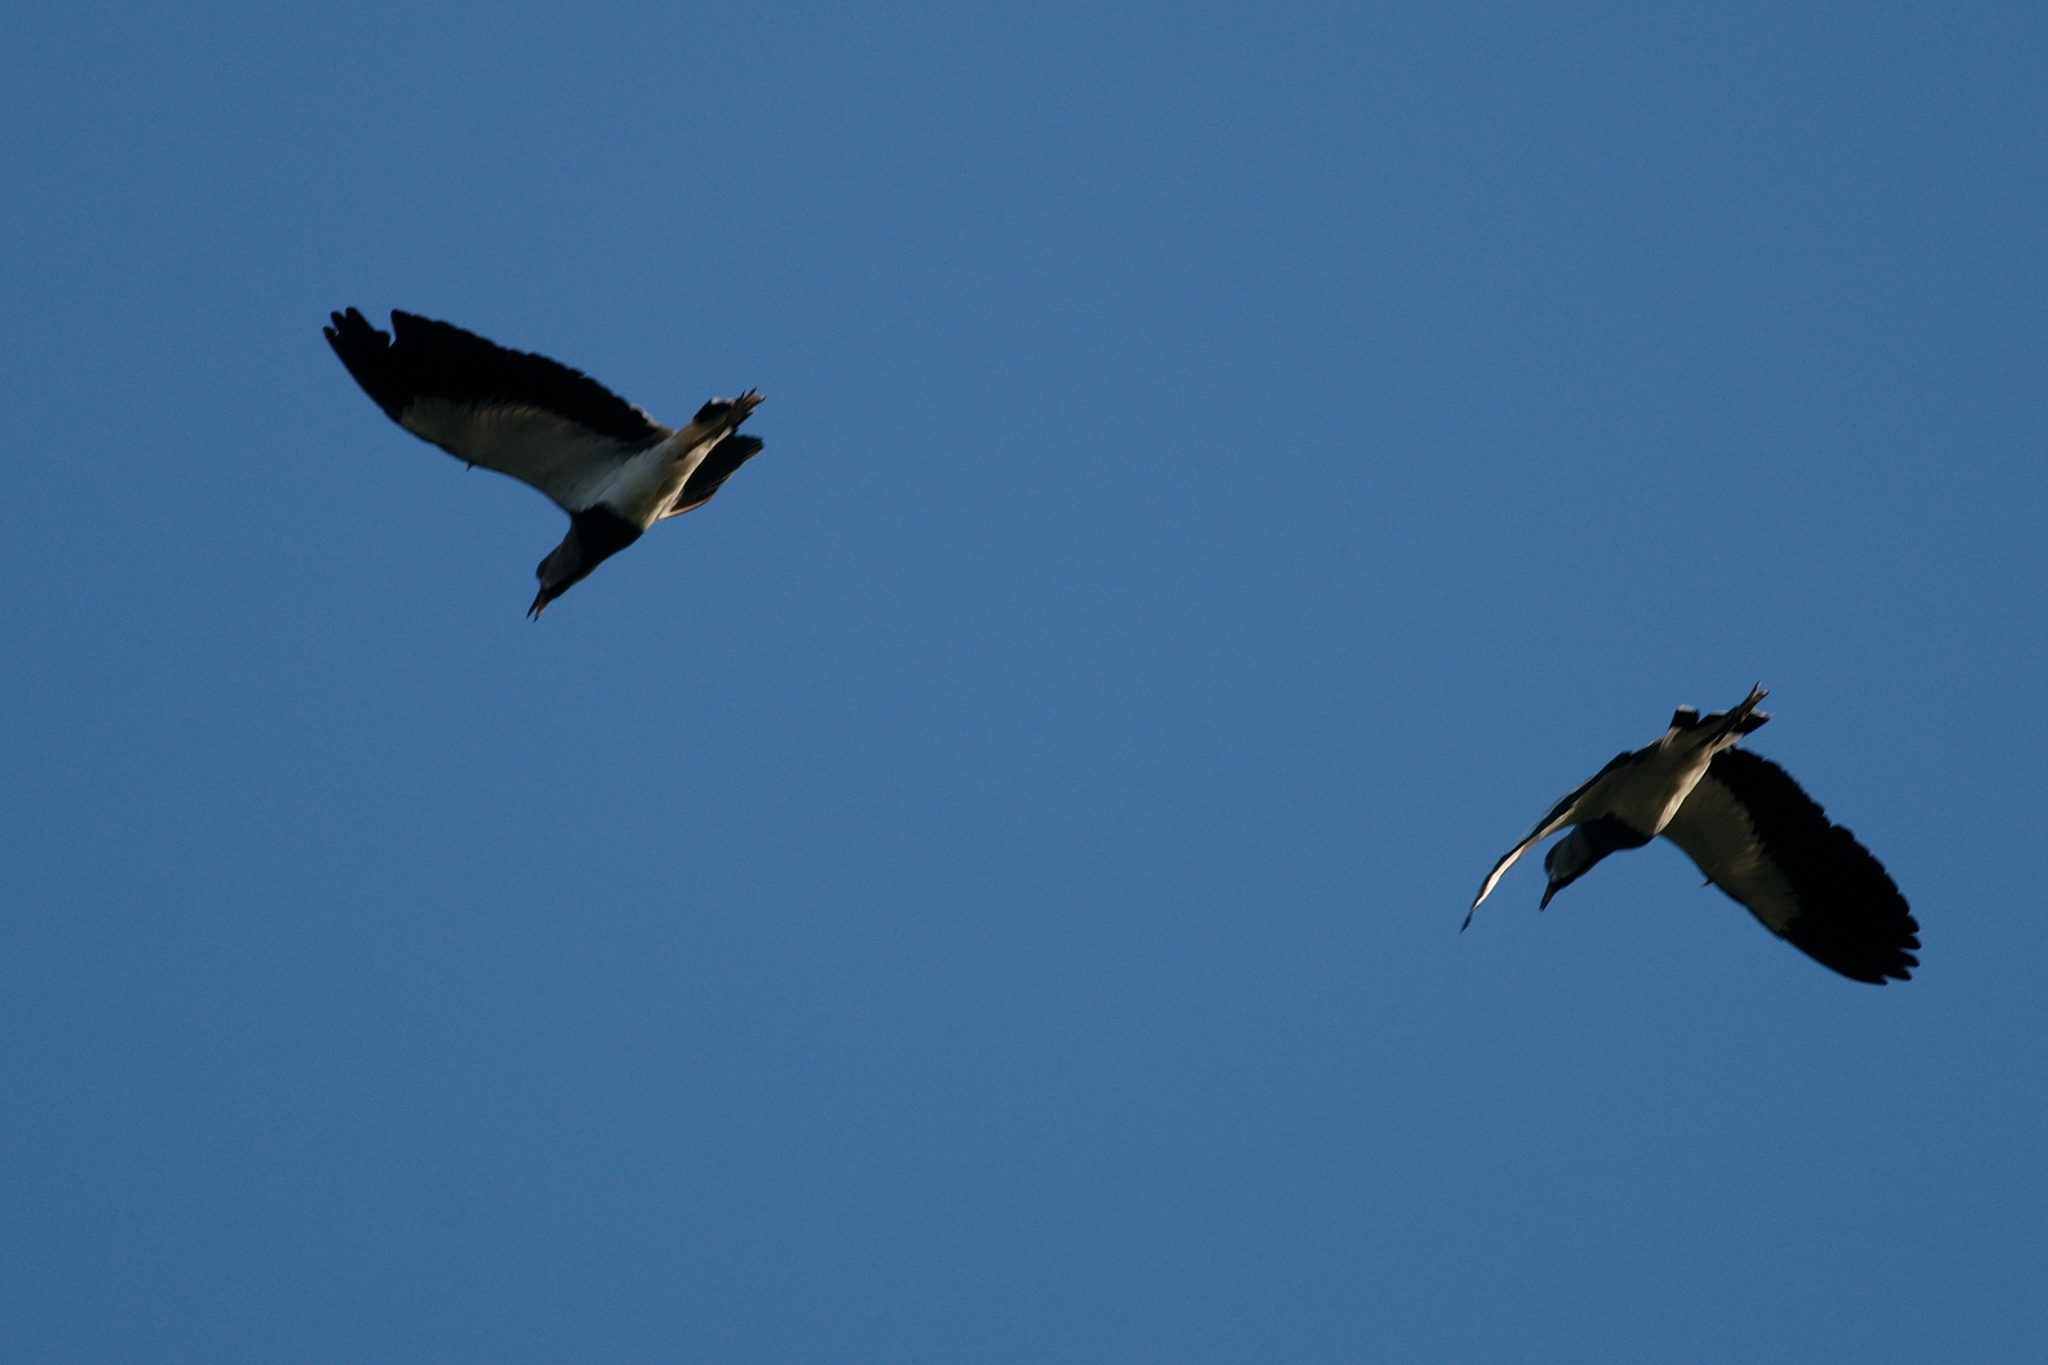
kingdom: Animalia
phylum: Chordata
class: Aves
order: Charadriiformes
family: Charadriidae
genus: Vanellus
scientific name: Vanellus chilensis
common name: Southern lapwing
